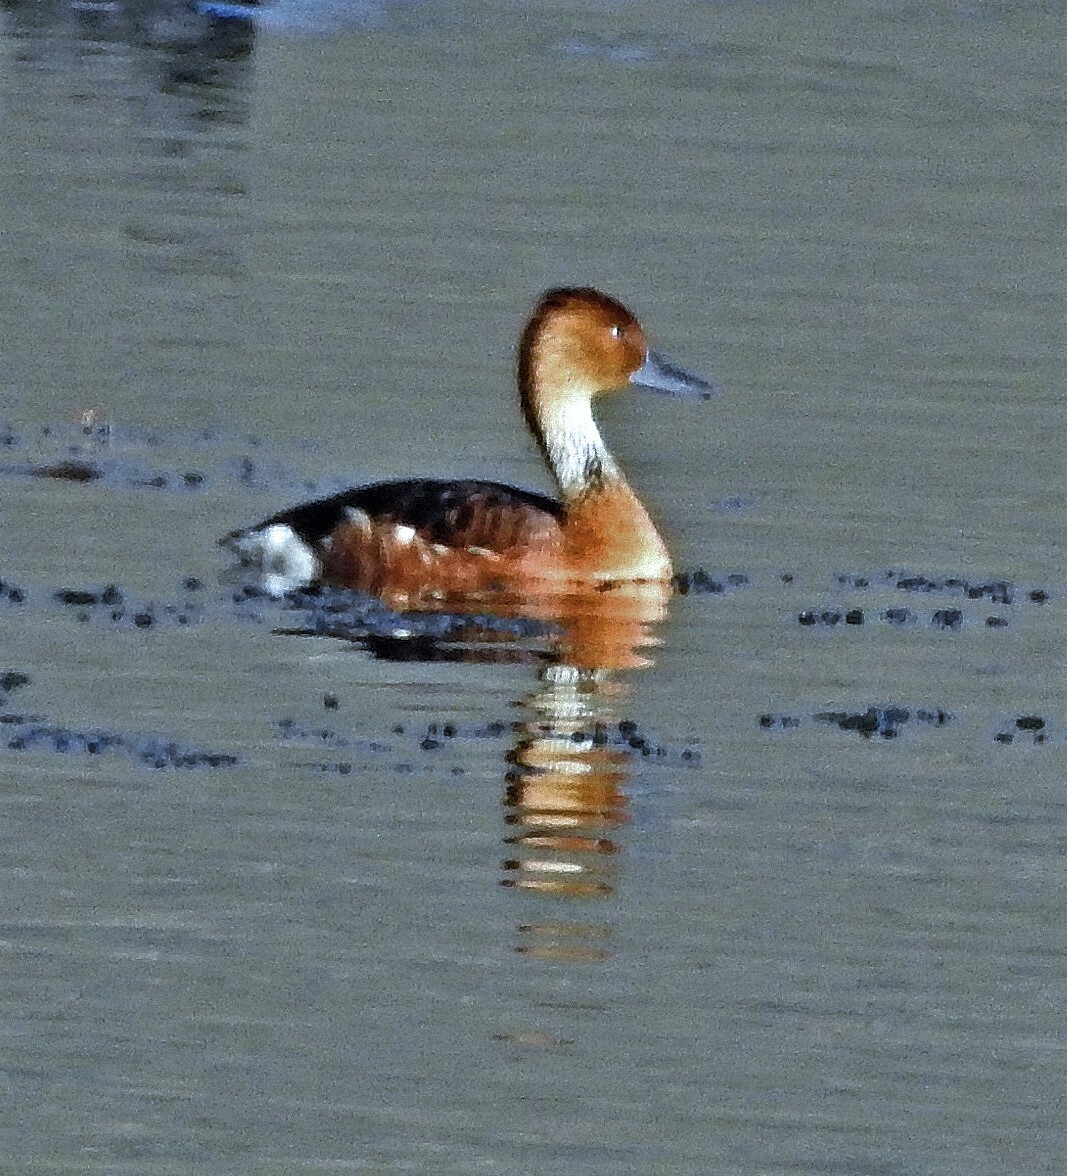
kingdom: Animalia
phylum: Chordata
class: Aves
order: Anseriformes
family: Anatidae
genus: Dendrocygna
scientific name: Dendrocygna bicolor
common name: Fulvous whistling duck
